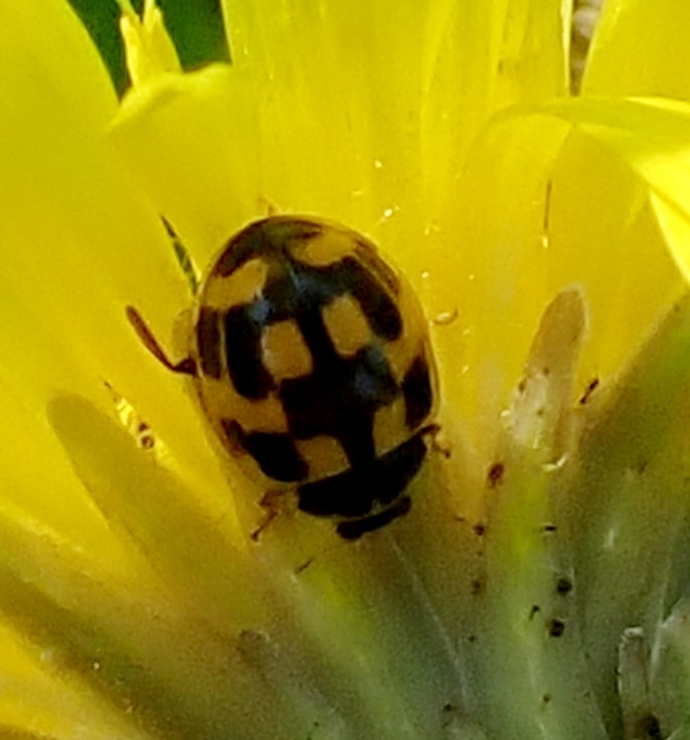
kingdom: Animalia
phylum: Arthropoda
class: Insecta
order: Coleoptera
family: Coccinellidae
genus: Propylaea
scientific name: Propylaea quatuordecimpunctata
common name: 14-spotted ladybird beetle
